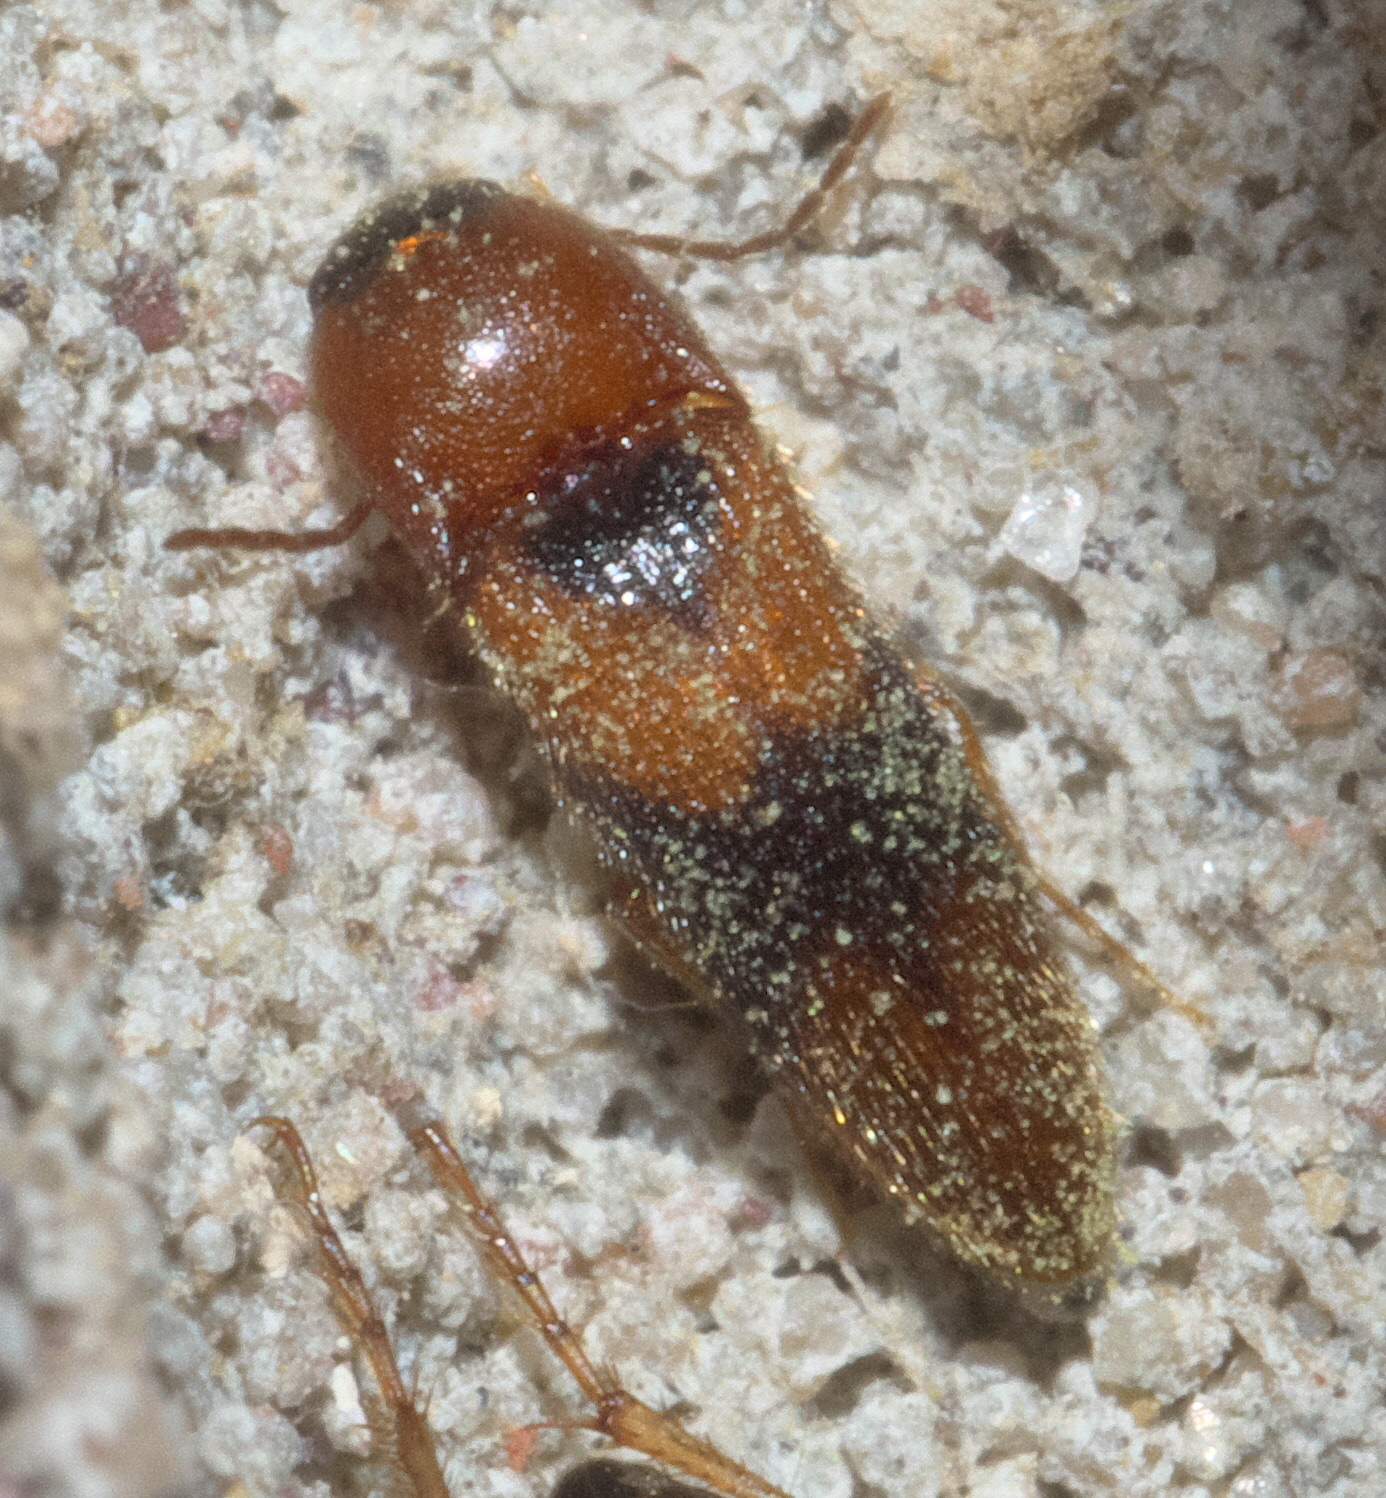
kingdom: Animalia
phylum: Arthropoda
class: Insecta
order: Coleoptera
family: Elateridae
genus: Ampedus
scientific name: Ampedus areolatus
